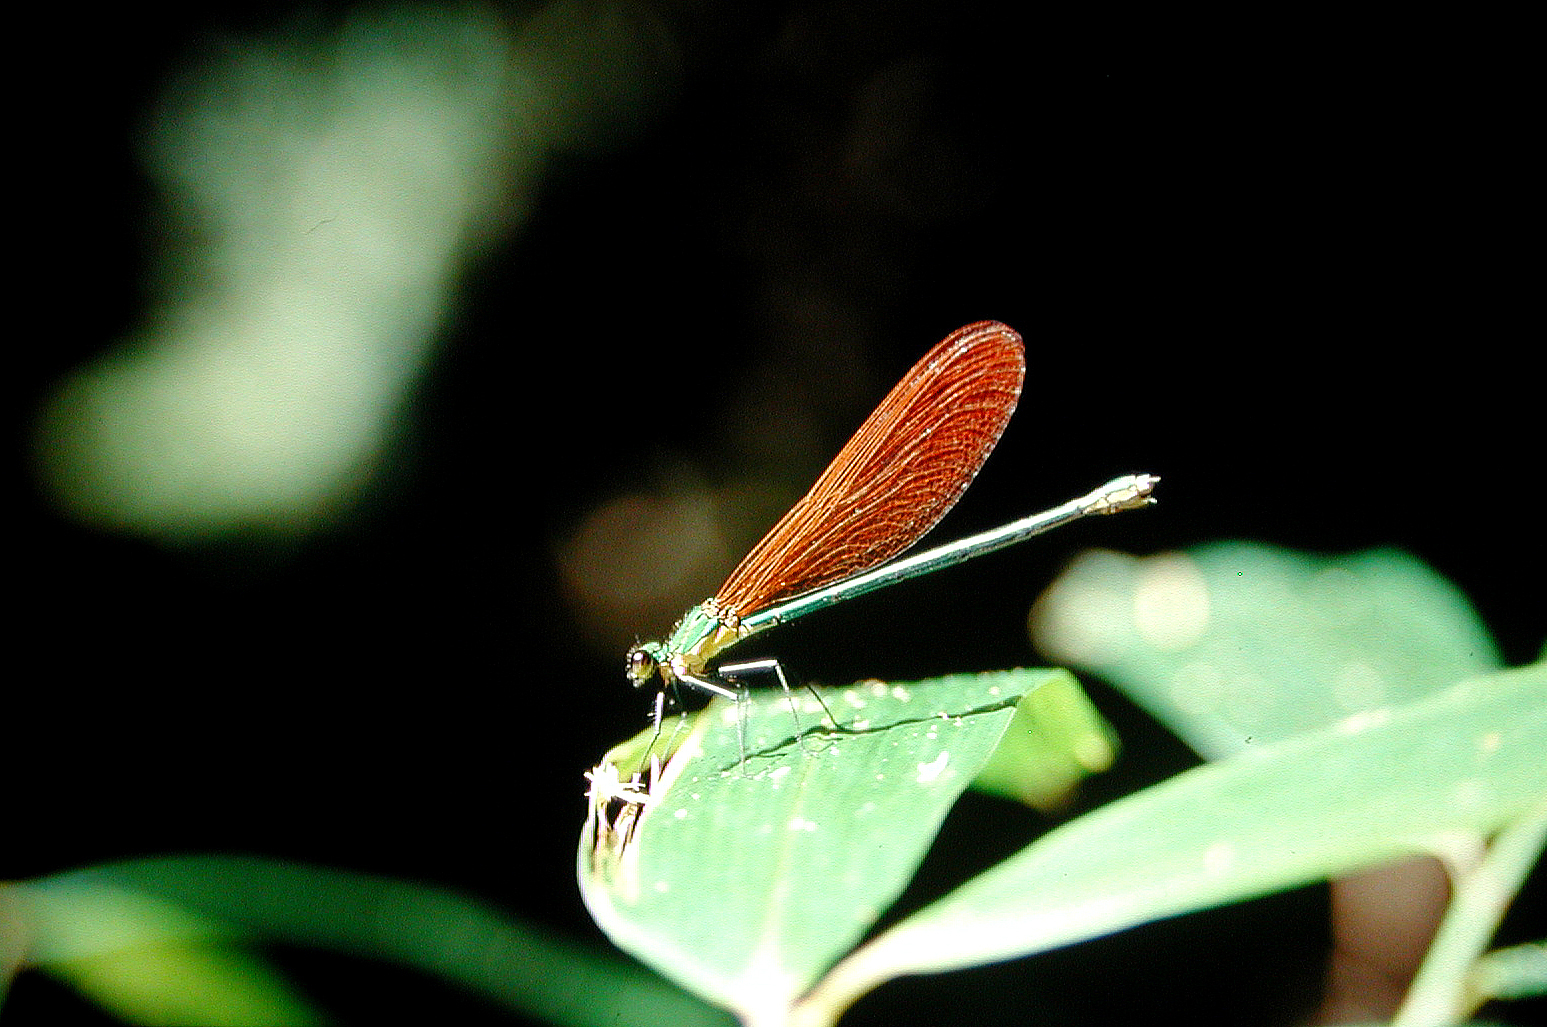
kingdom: Animalia
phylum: Arthropoda
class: Insecta
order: Odonata
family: Calopterygidae
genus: Vestalaria
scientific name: Vestalaria smaragdina
